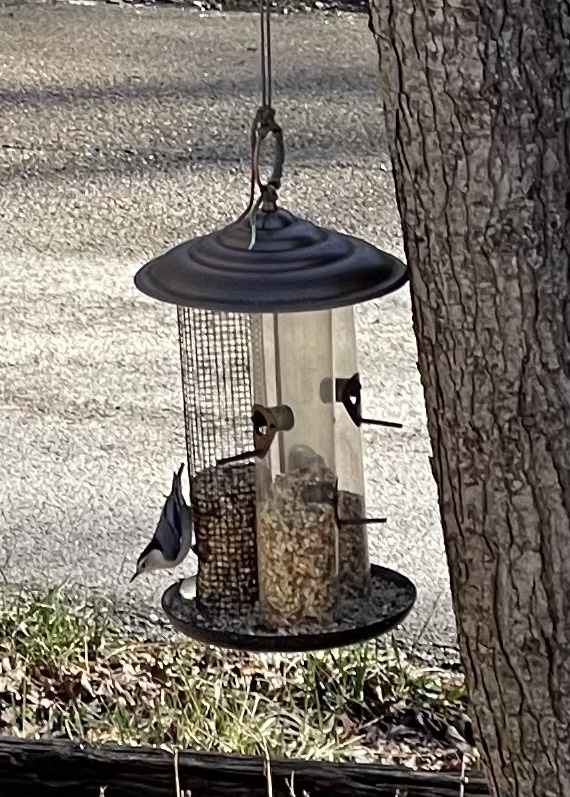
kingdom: Animalia
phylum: Chordata
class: Aves
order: Passeriformes
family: Sittidae
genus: Sitta
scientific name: Sitta carolinensis
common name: White-breasted nuthatch
